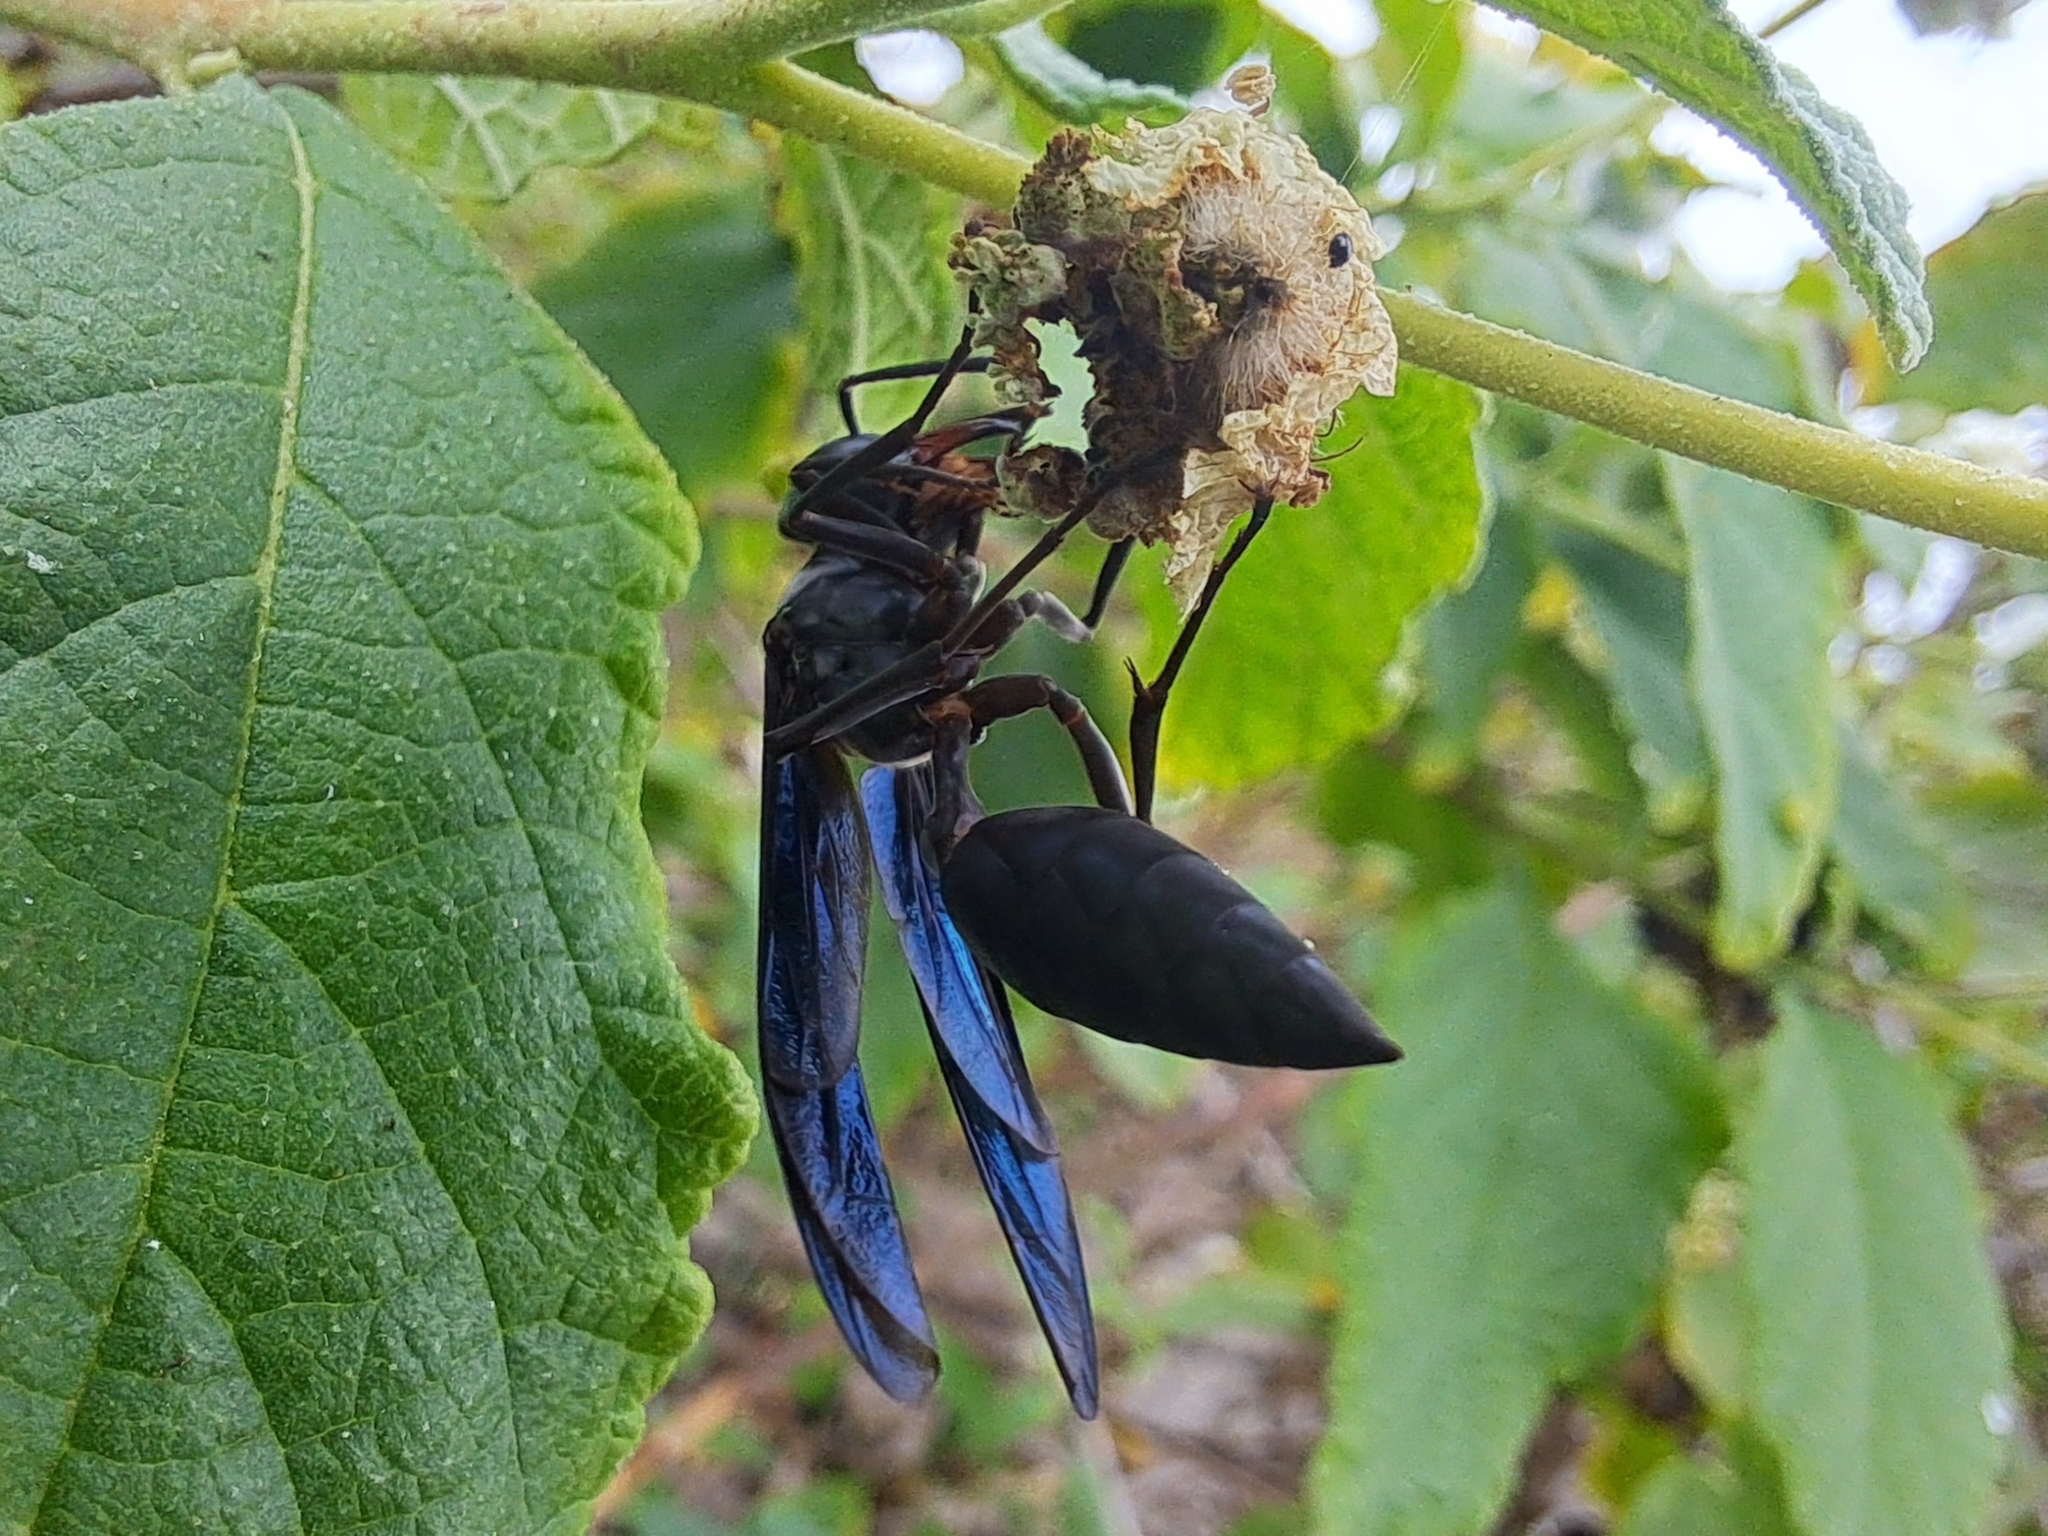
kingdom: Animalia
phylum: Arthropoda
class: Insecta
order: Hymenoptera
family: Vespidae
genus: Synoeca
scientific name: Synoeca septentrionalis
